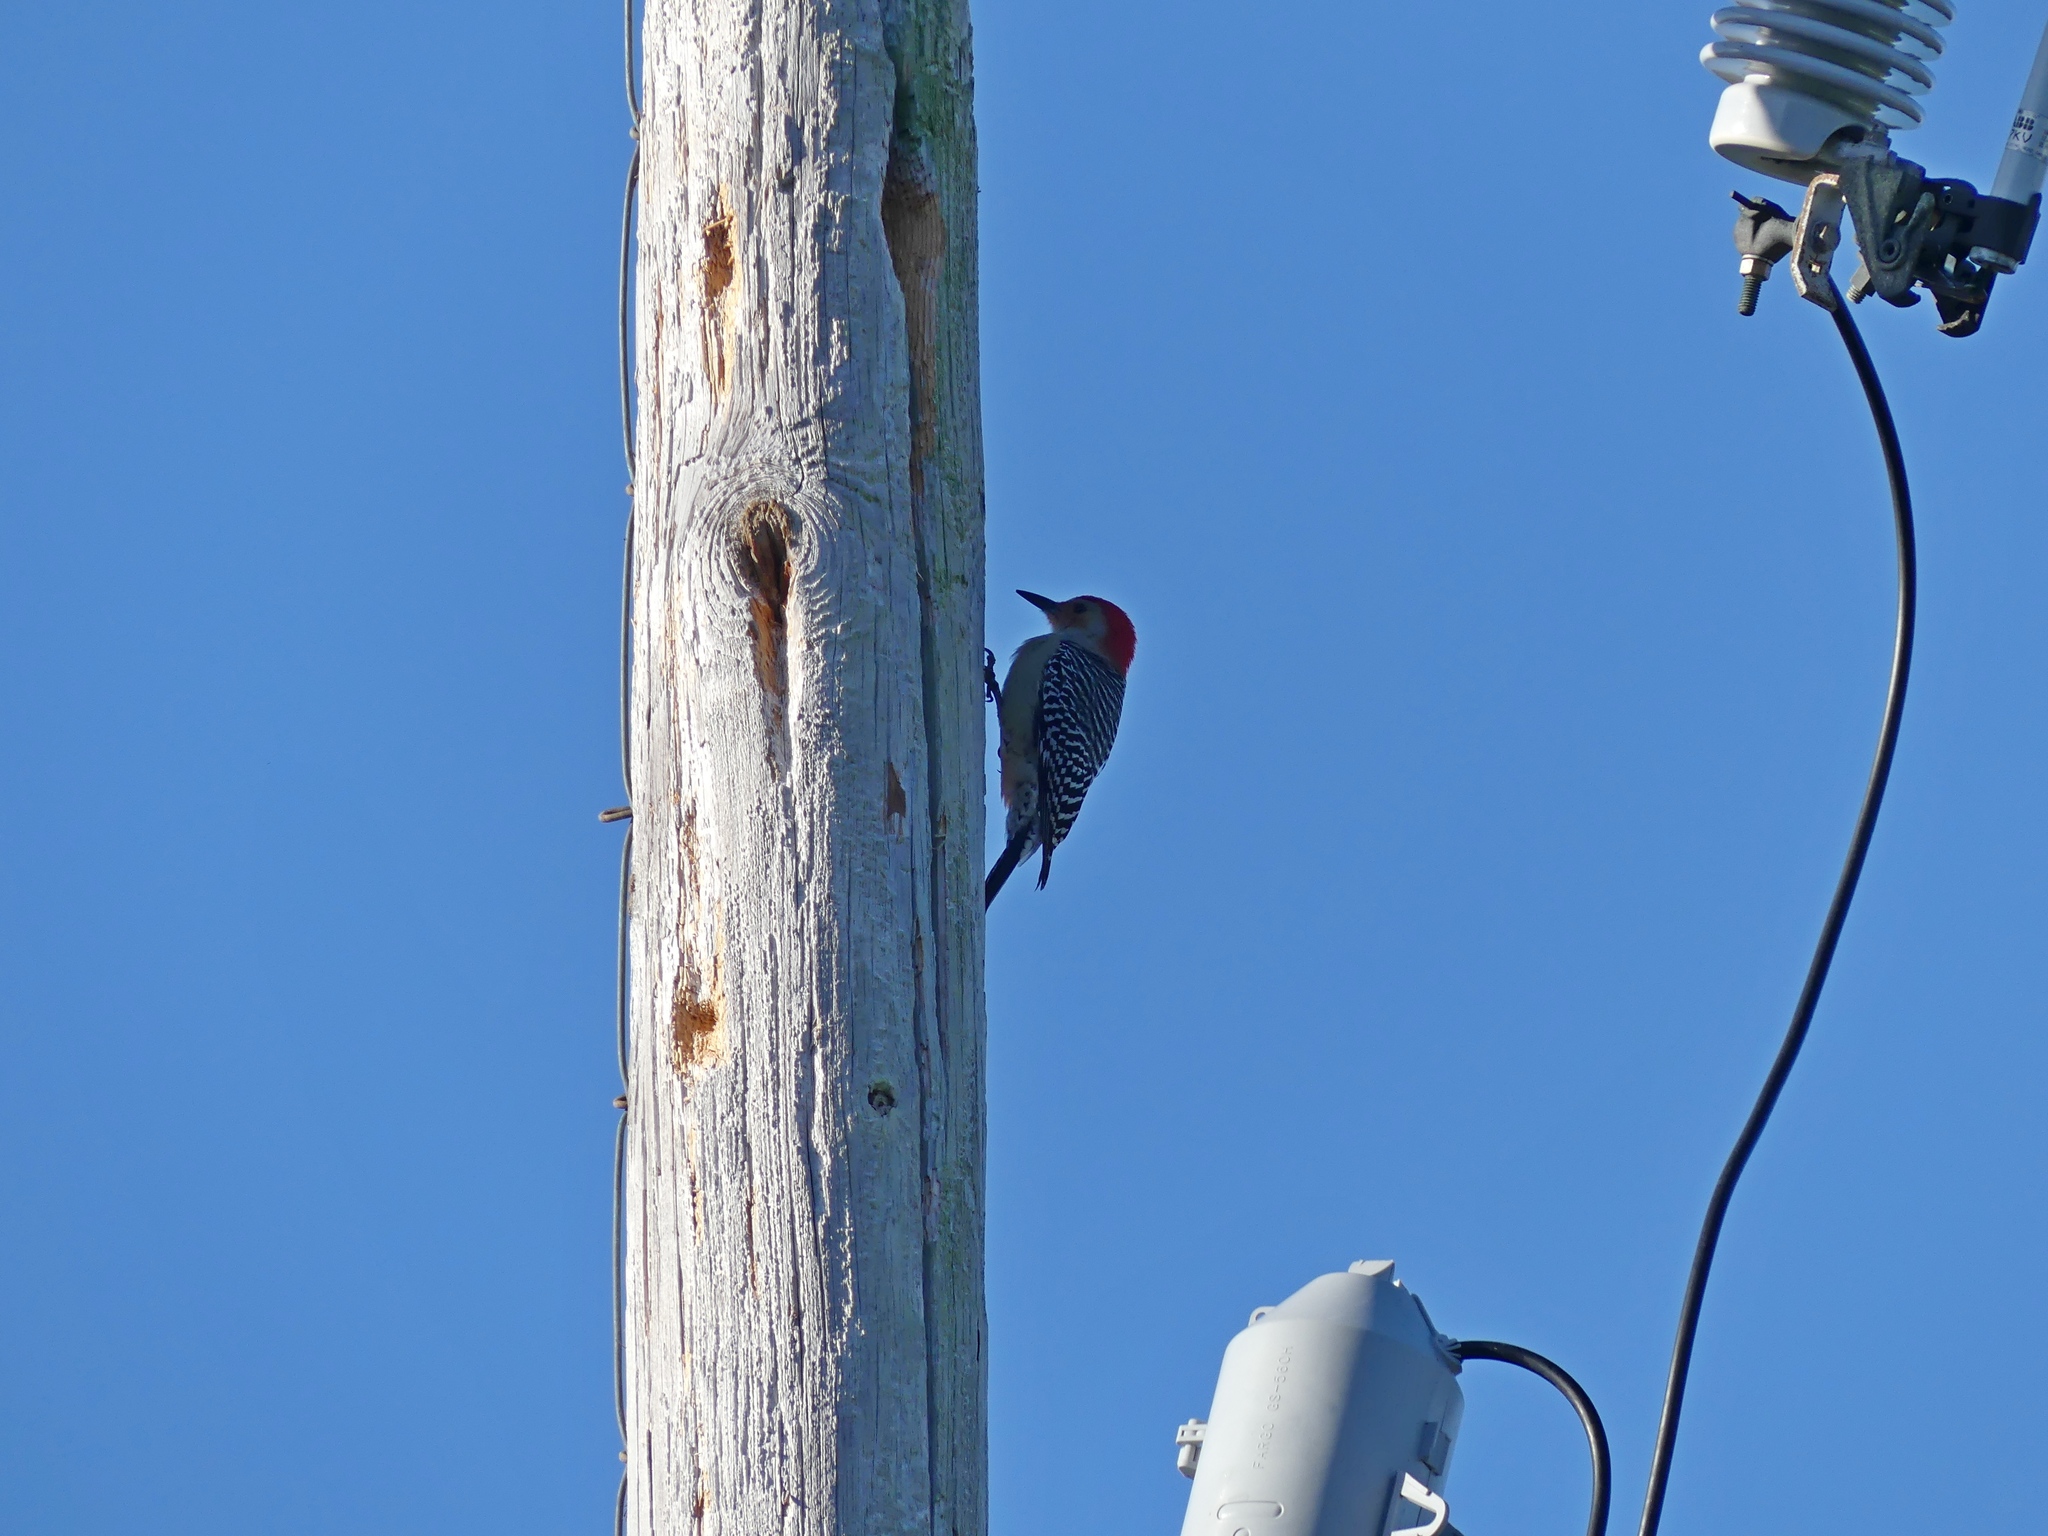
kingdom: Animalia
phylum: Chordata
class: Aves
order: Piciformes
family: Picidae
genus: Melanerpes
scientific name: Melanerpes carolinus
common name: Red-bellied woodpecker
